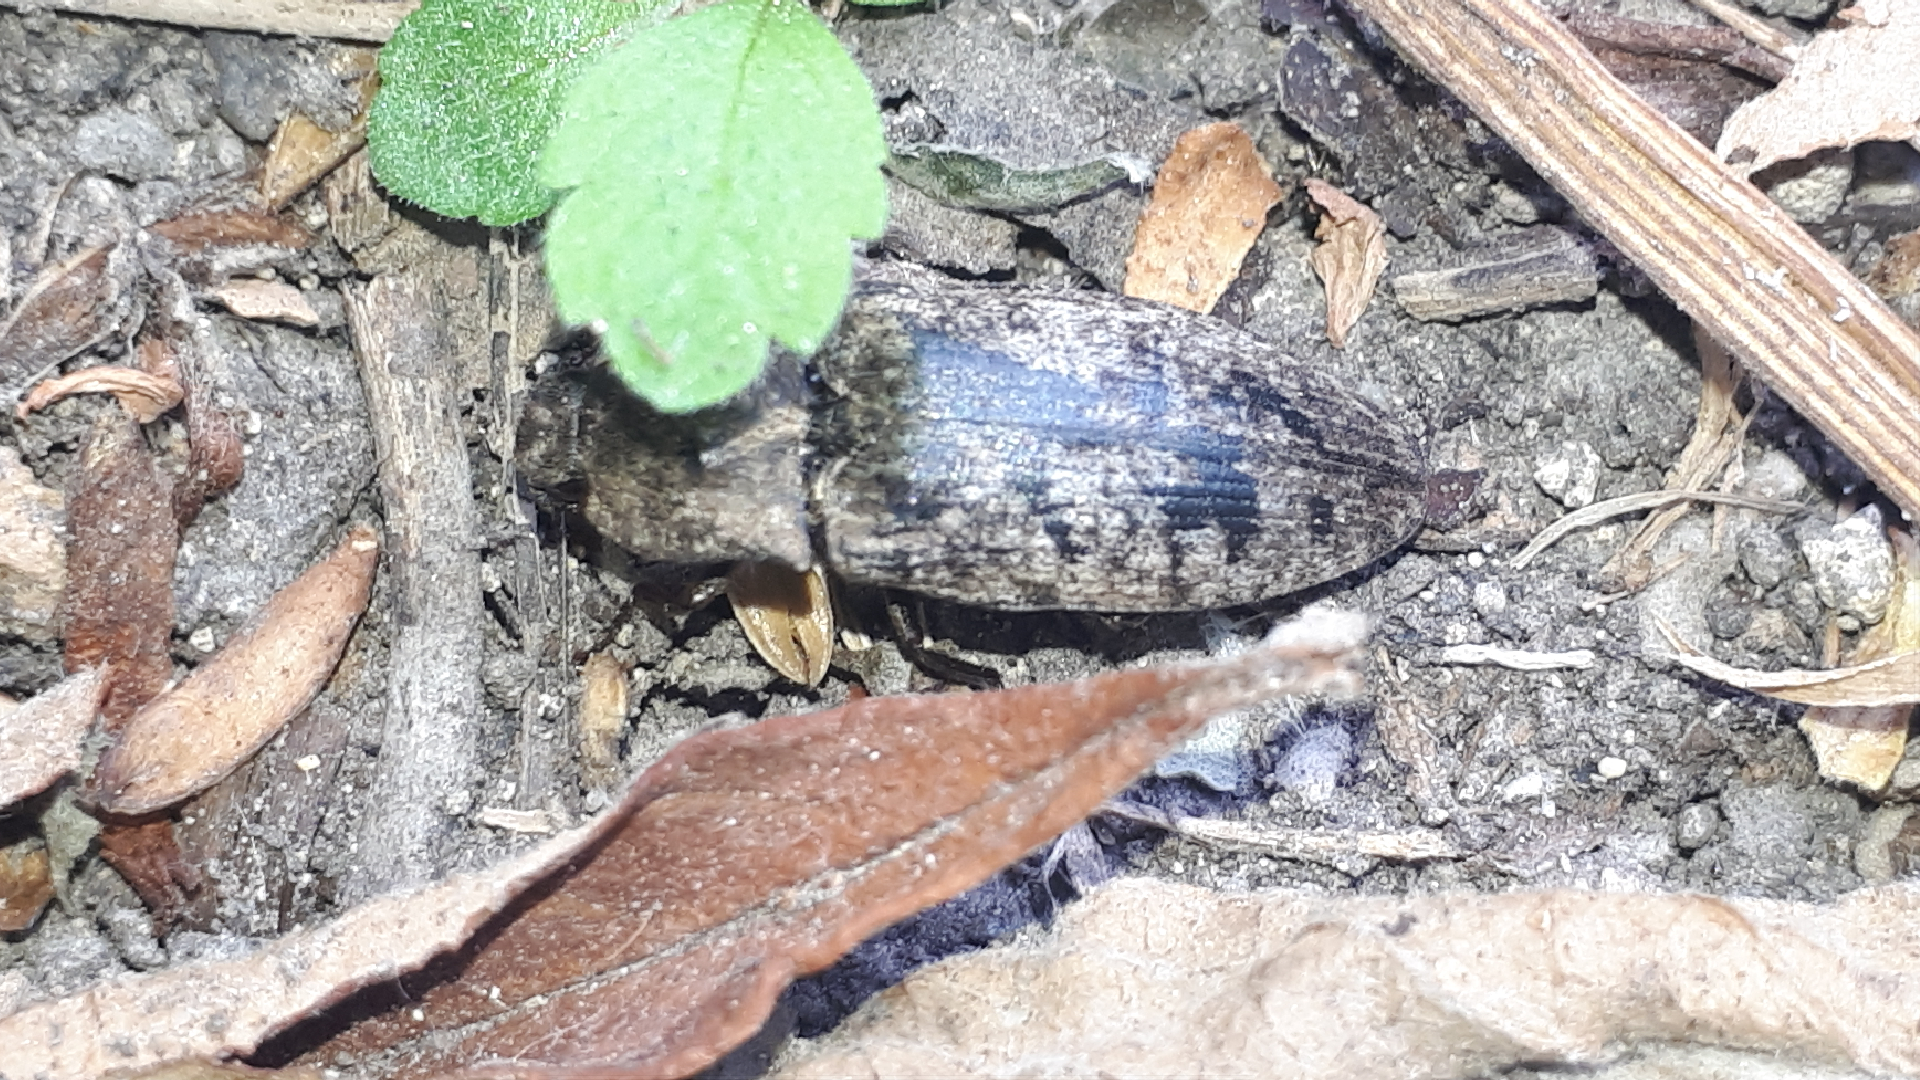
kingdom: Animalia
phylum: Arthropoda
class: Insecta
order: Coleoptera
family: Elateridae
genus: Agrypnus
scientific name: Agrypnus murinus
